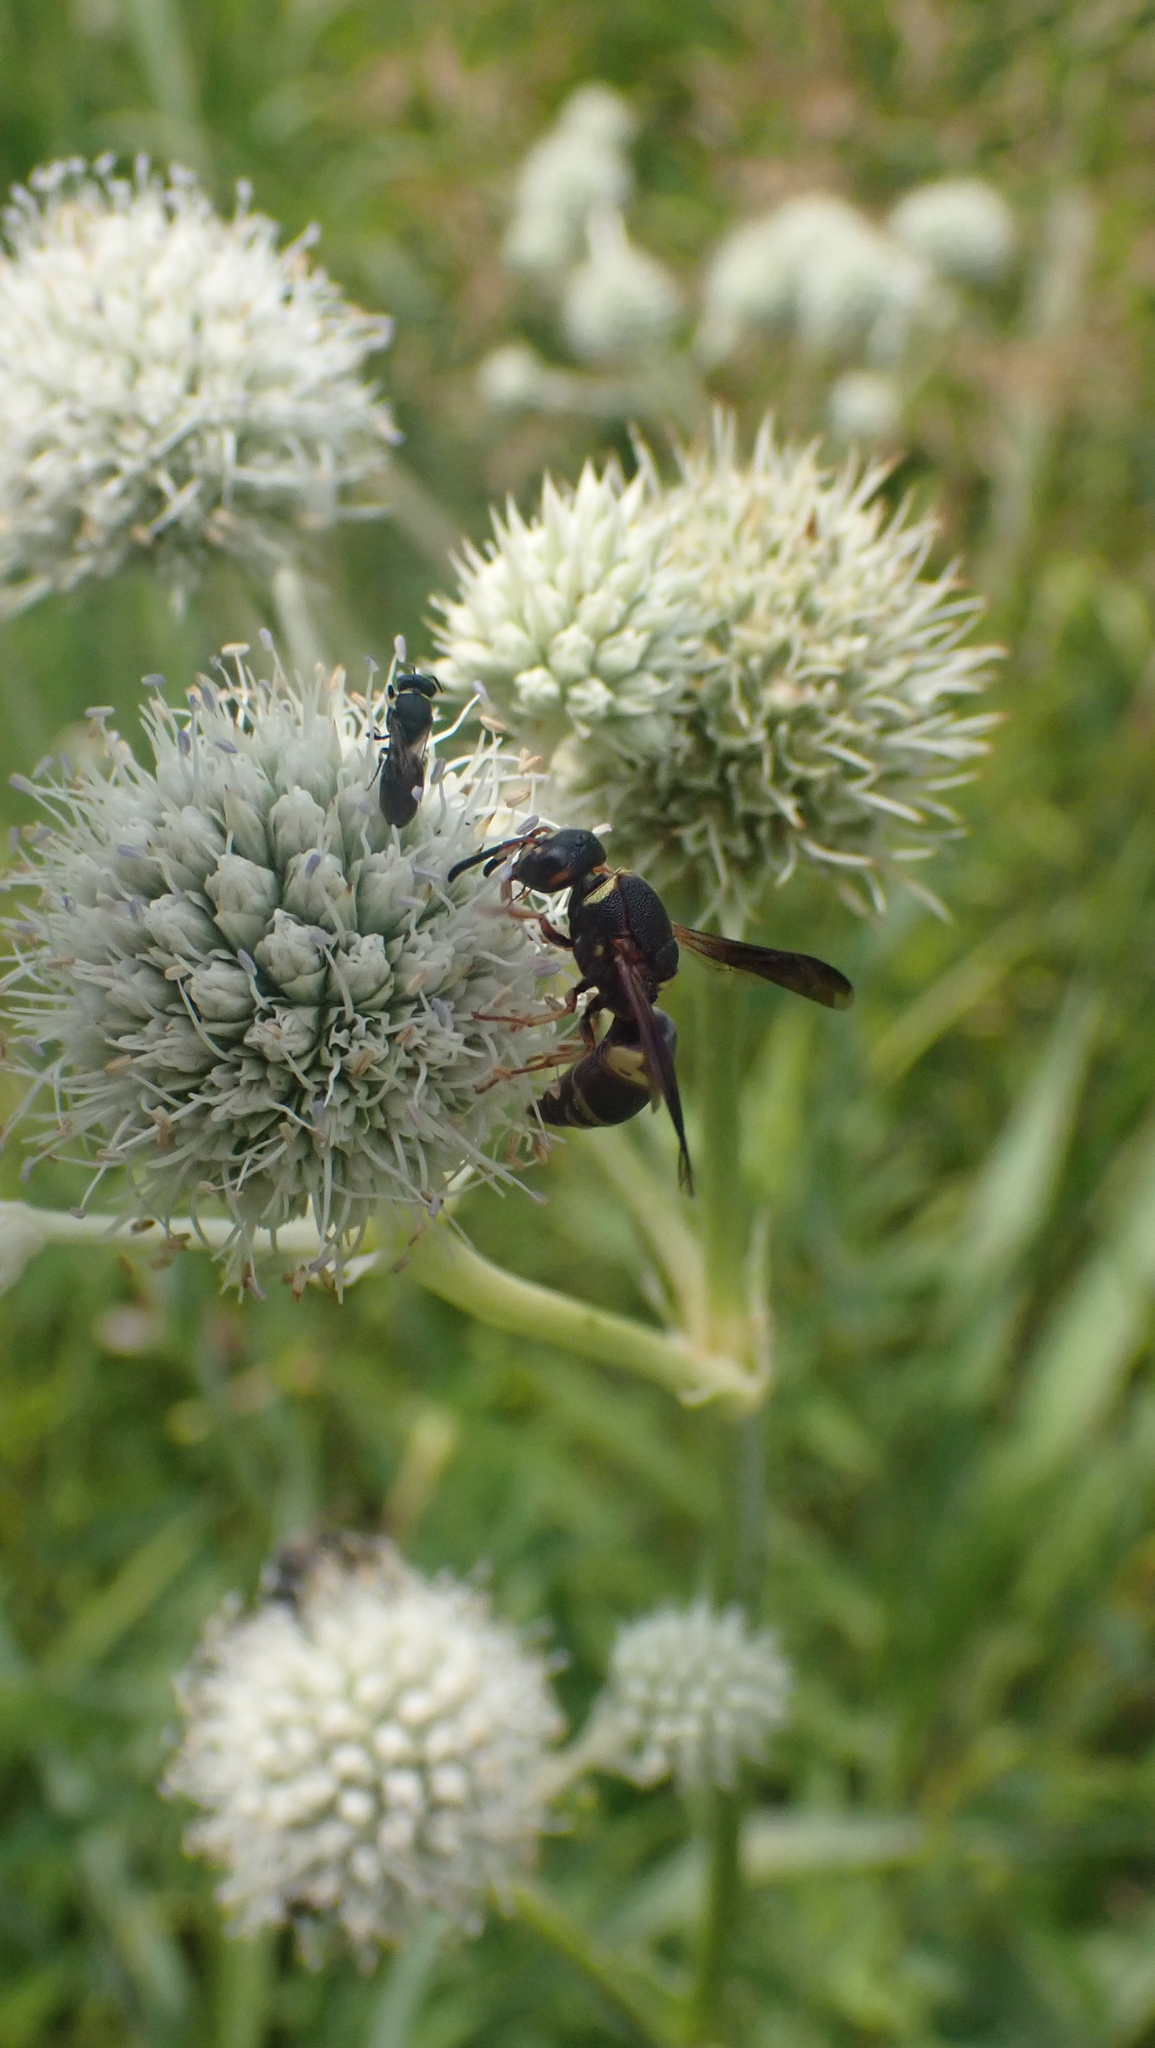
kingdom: Animalia
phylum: Arthropoda
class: Insecta
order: Hymenoptera
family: Eumenidae
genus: Euodynerus
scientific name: Euodynerus hidalgo
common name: Wasp
